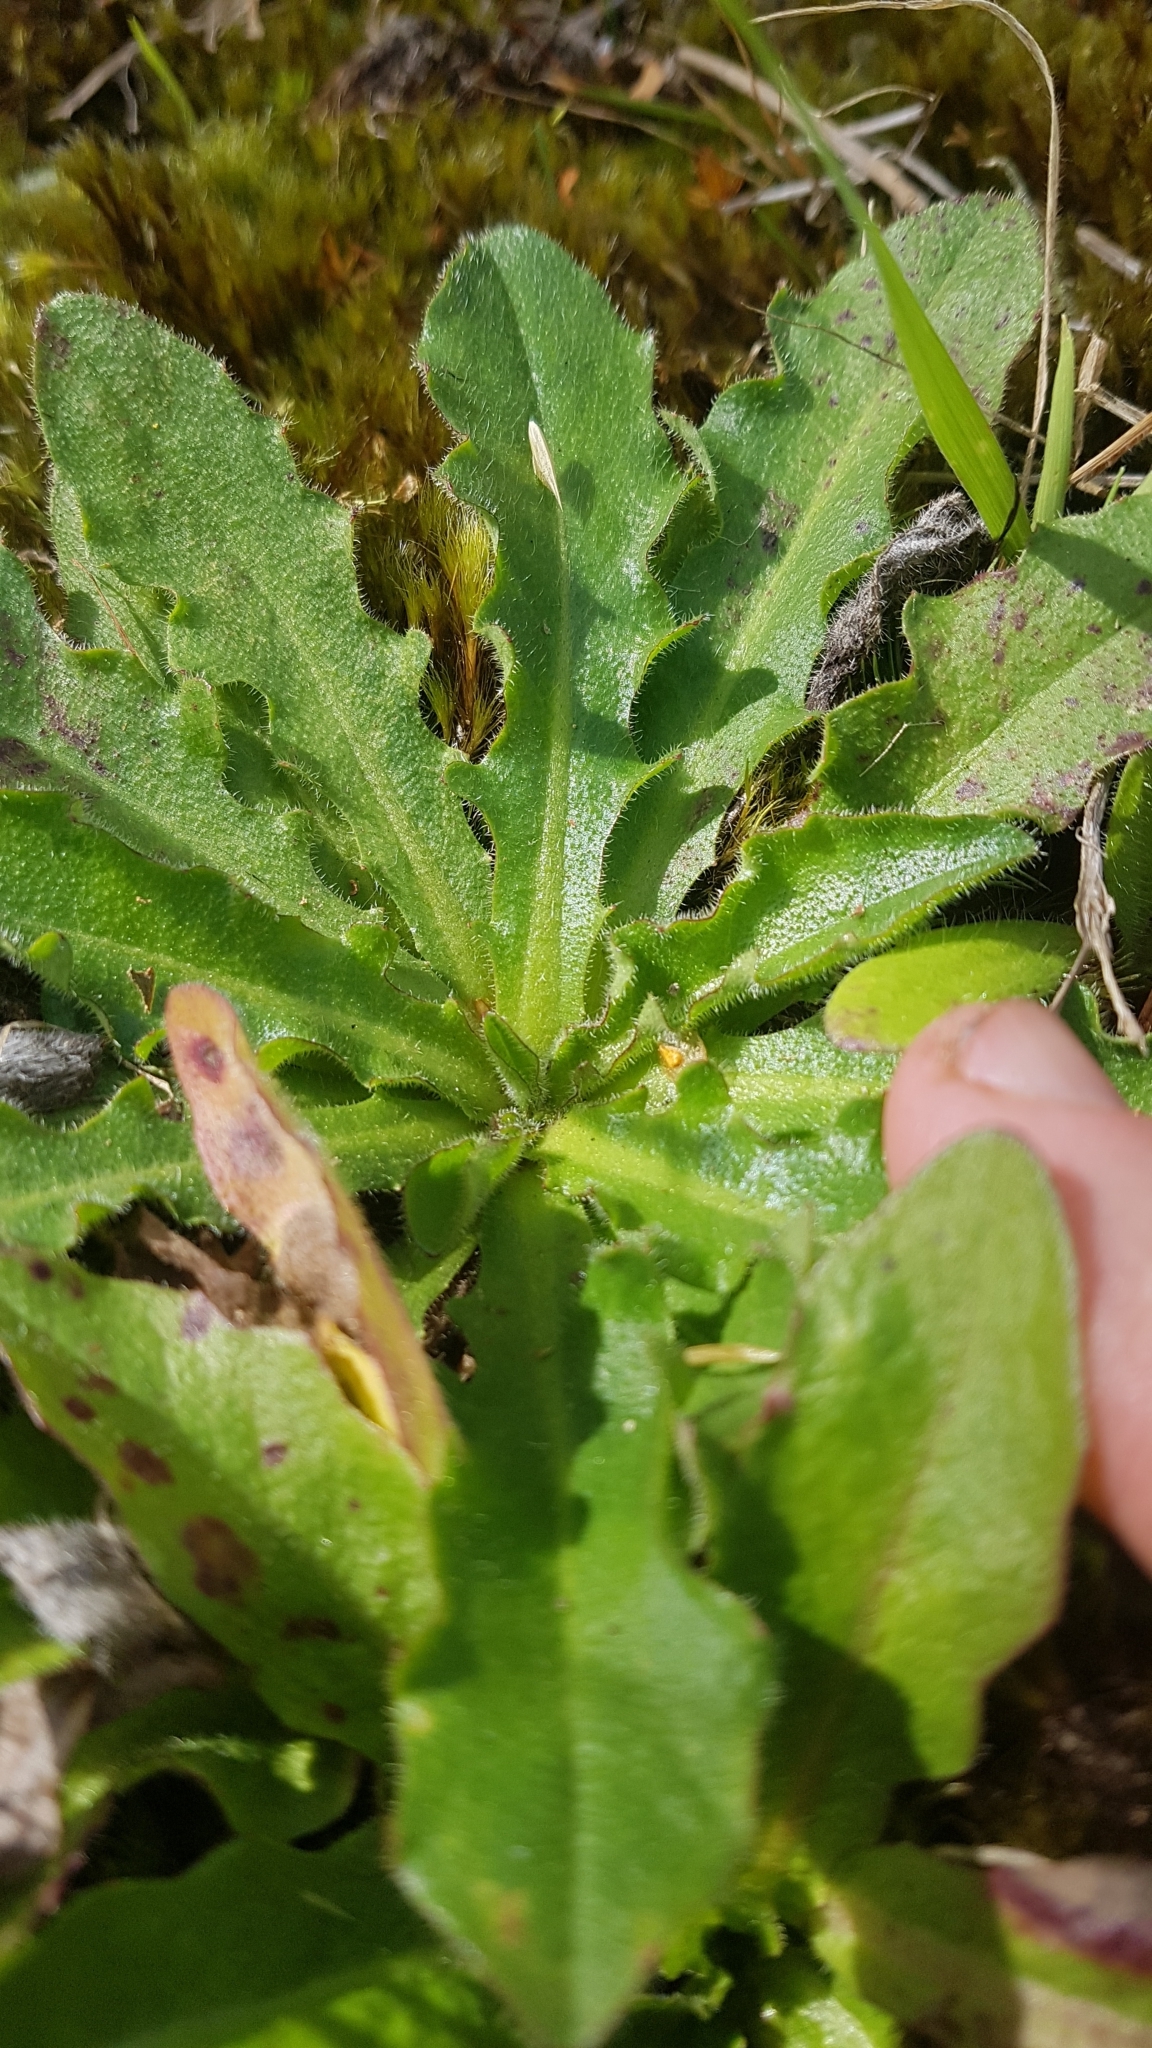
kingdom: Plantae
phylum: Tracheophyta
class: Magnoliopsida
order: Asterales
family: Asteraceae
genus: Hypochaeris
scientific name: Hypochaeris radicata
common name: Flatweed
